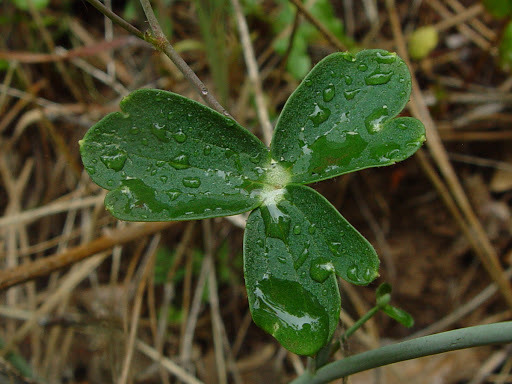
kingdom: Plantae
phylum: Tracheophyta
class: Magnoliopsida
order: Ranunculales
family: Ranunculaceae
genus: Delphinium
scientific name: Delphinium nudicaule
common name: Red larkspur
